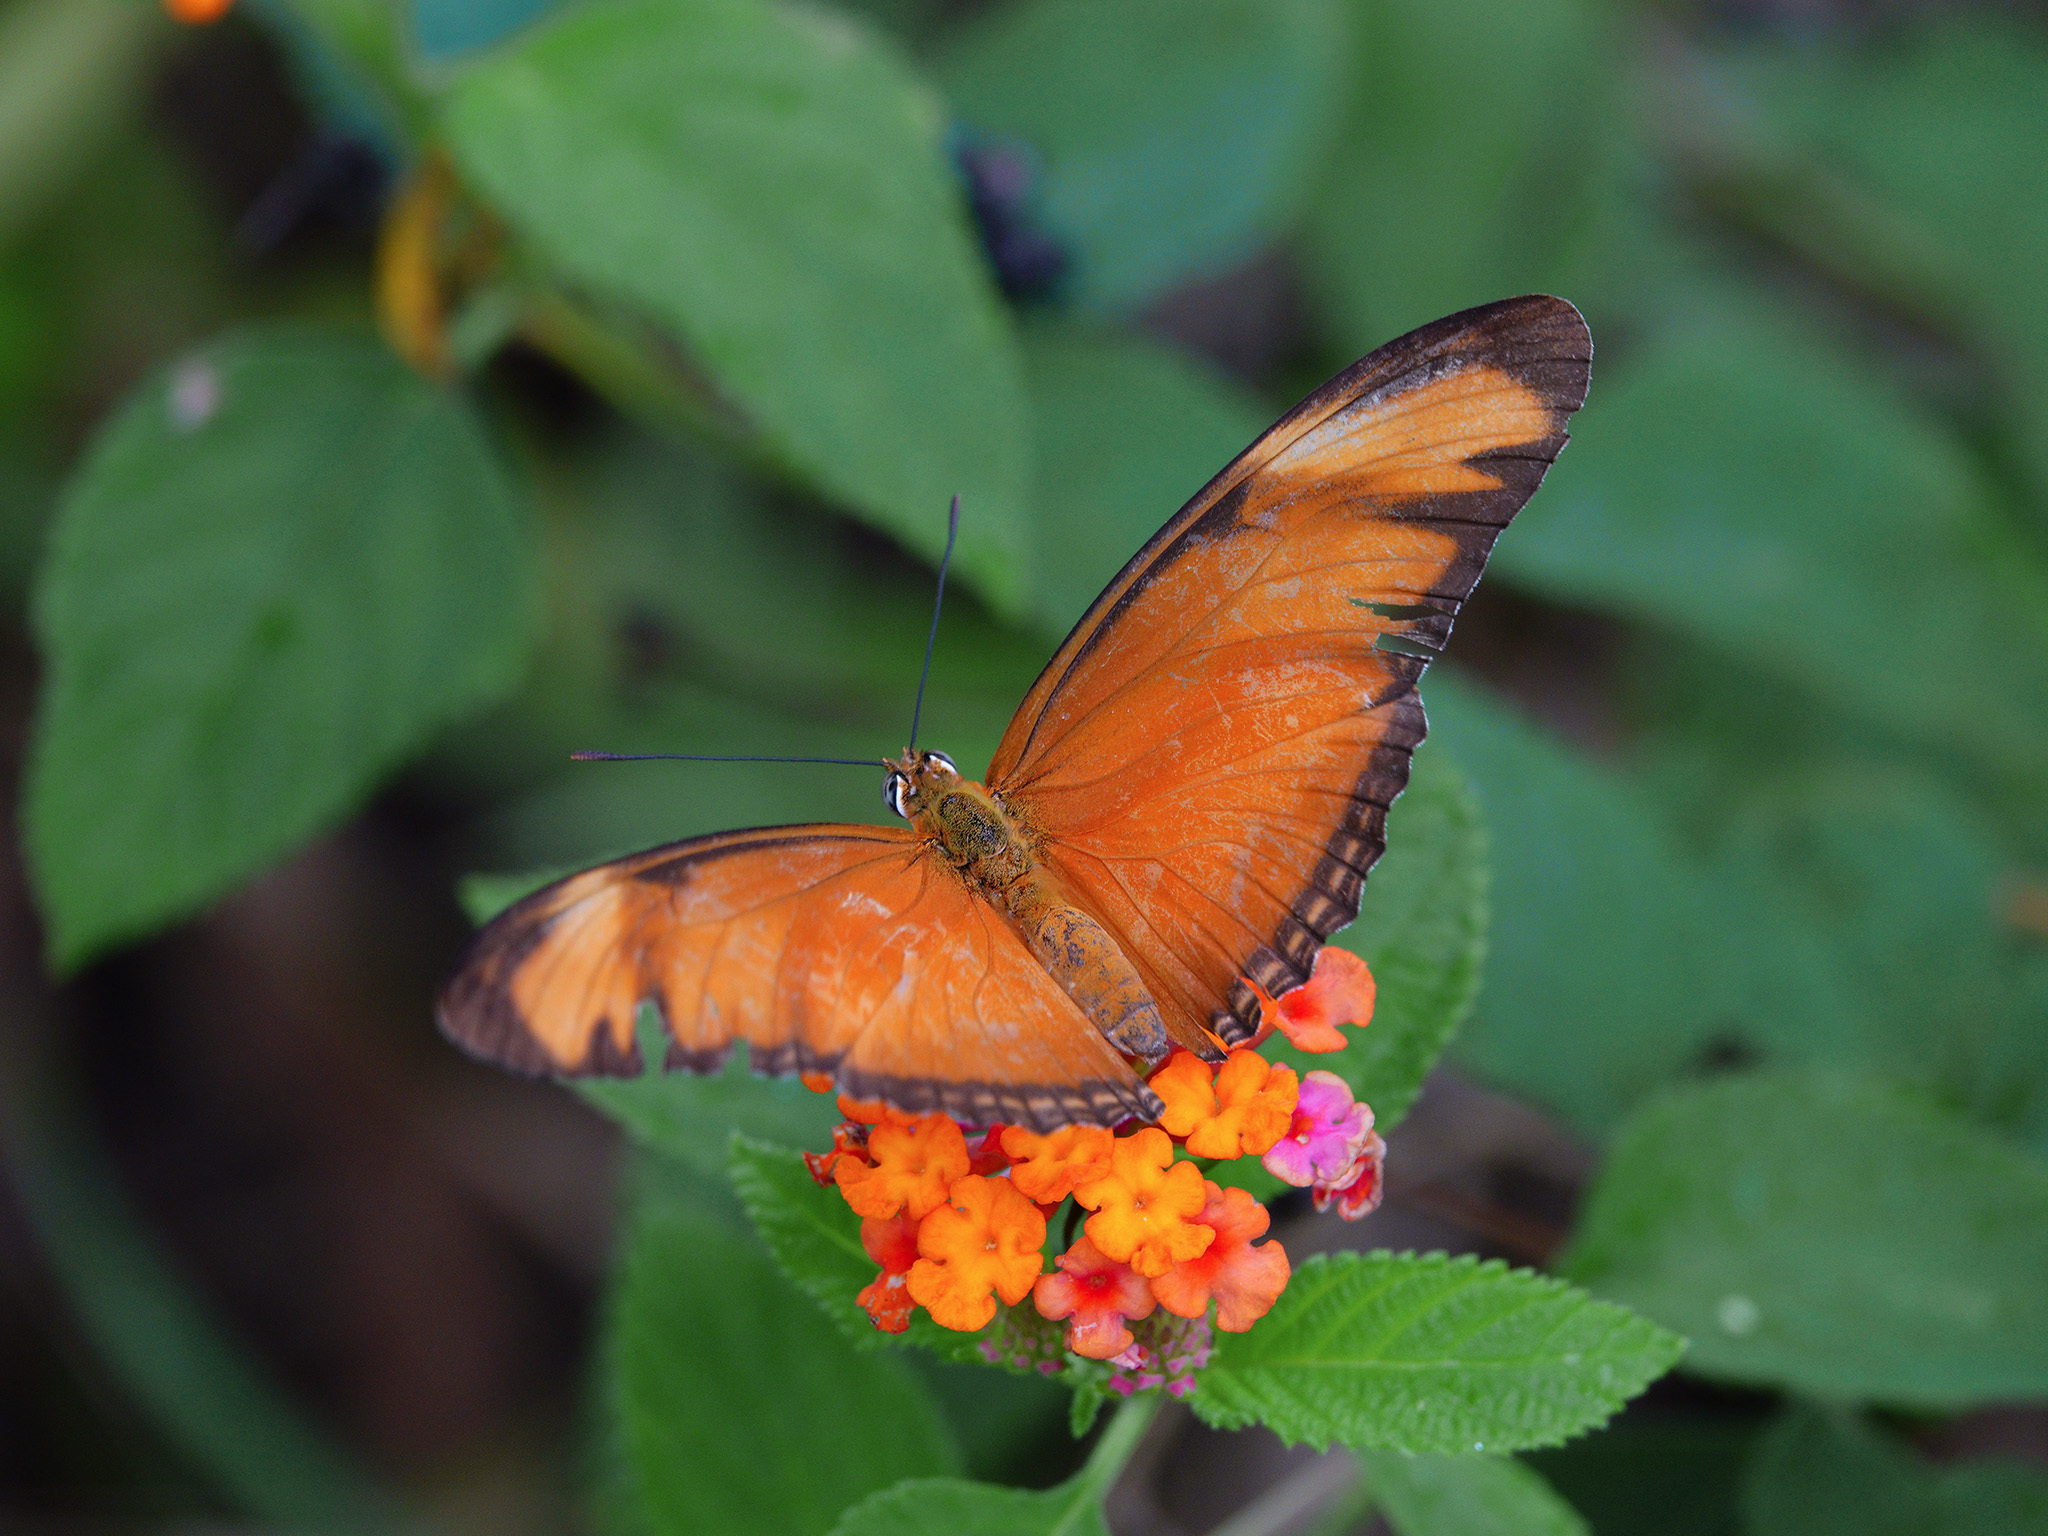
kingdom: Animalia
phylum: Arthropoda
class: Insecta
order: Lepidoptera
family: Nymphalidae
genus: Dryas
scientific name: Dryas iulia
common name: Flambeau
